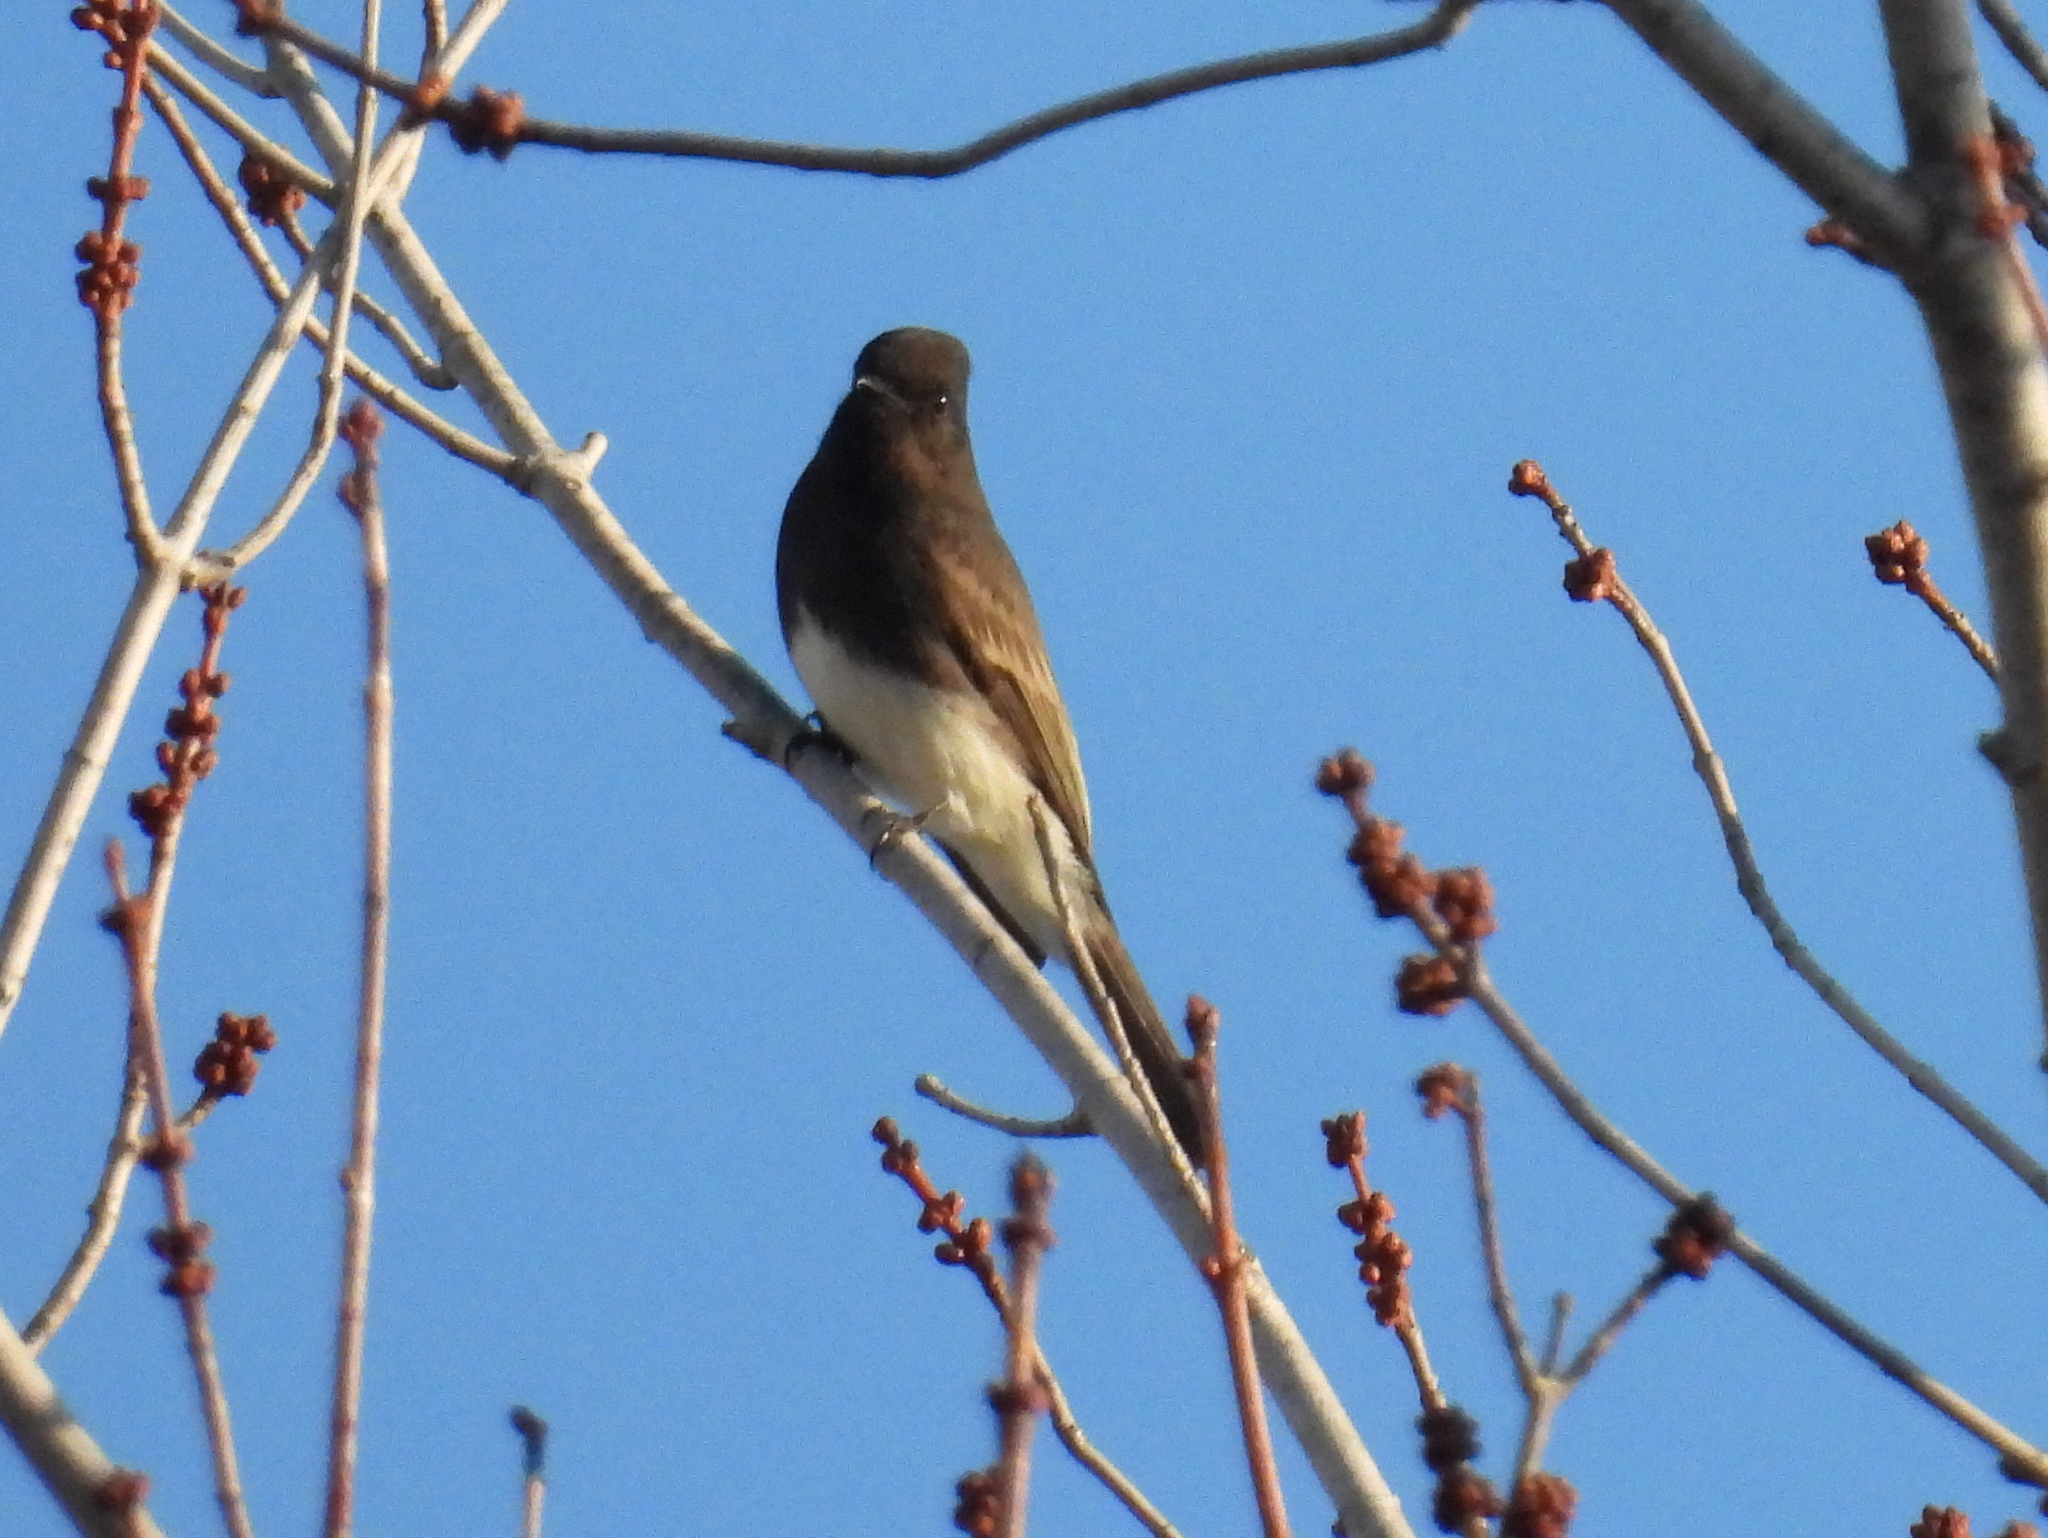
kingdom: Animalia
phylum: Chordata
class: Aves
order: Passeriformes
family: Tyrannidae
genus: Sayornis
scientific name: Sayornis nigricans
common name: Black phoebe
